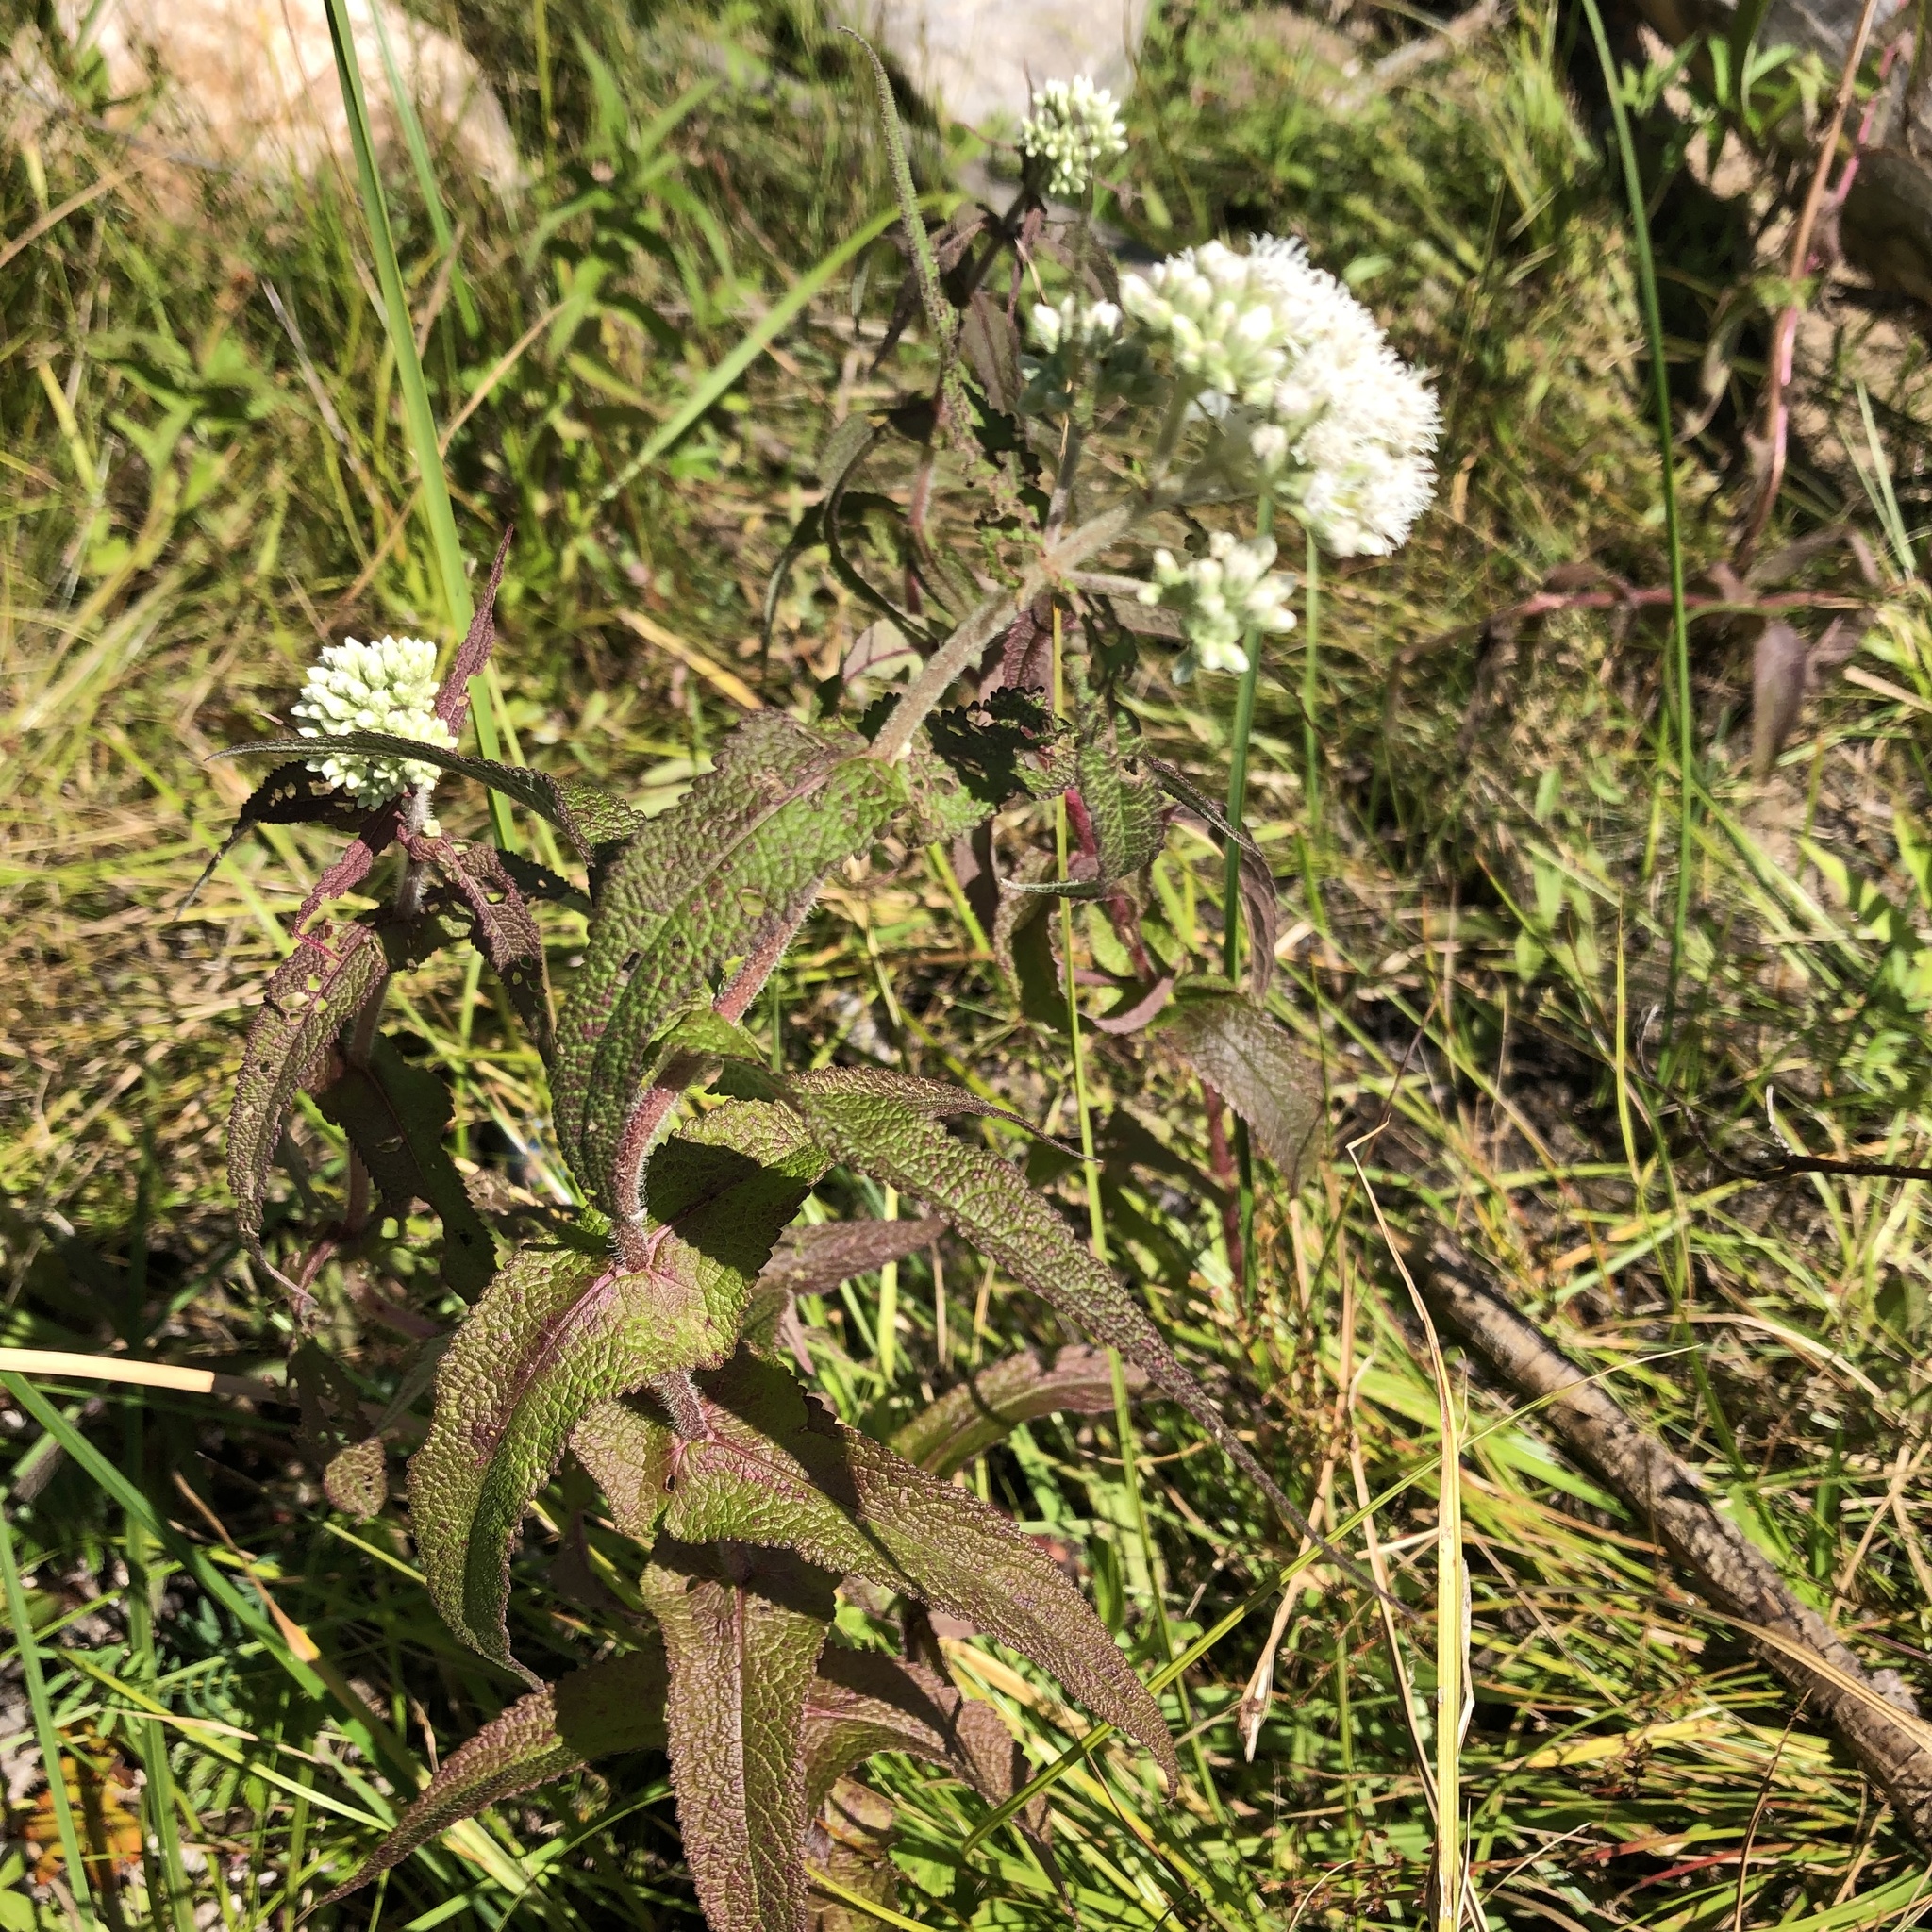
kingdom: Plantae
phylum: Tracheophyta
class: Magnoliopsida
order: Asterales
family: Asteraceae
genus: Eupatorium
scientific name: Eupatorium perfoliatum
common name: Boneset
